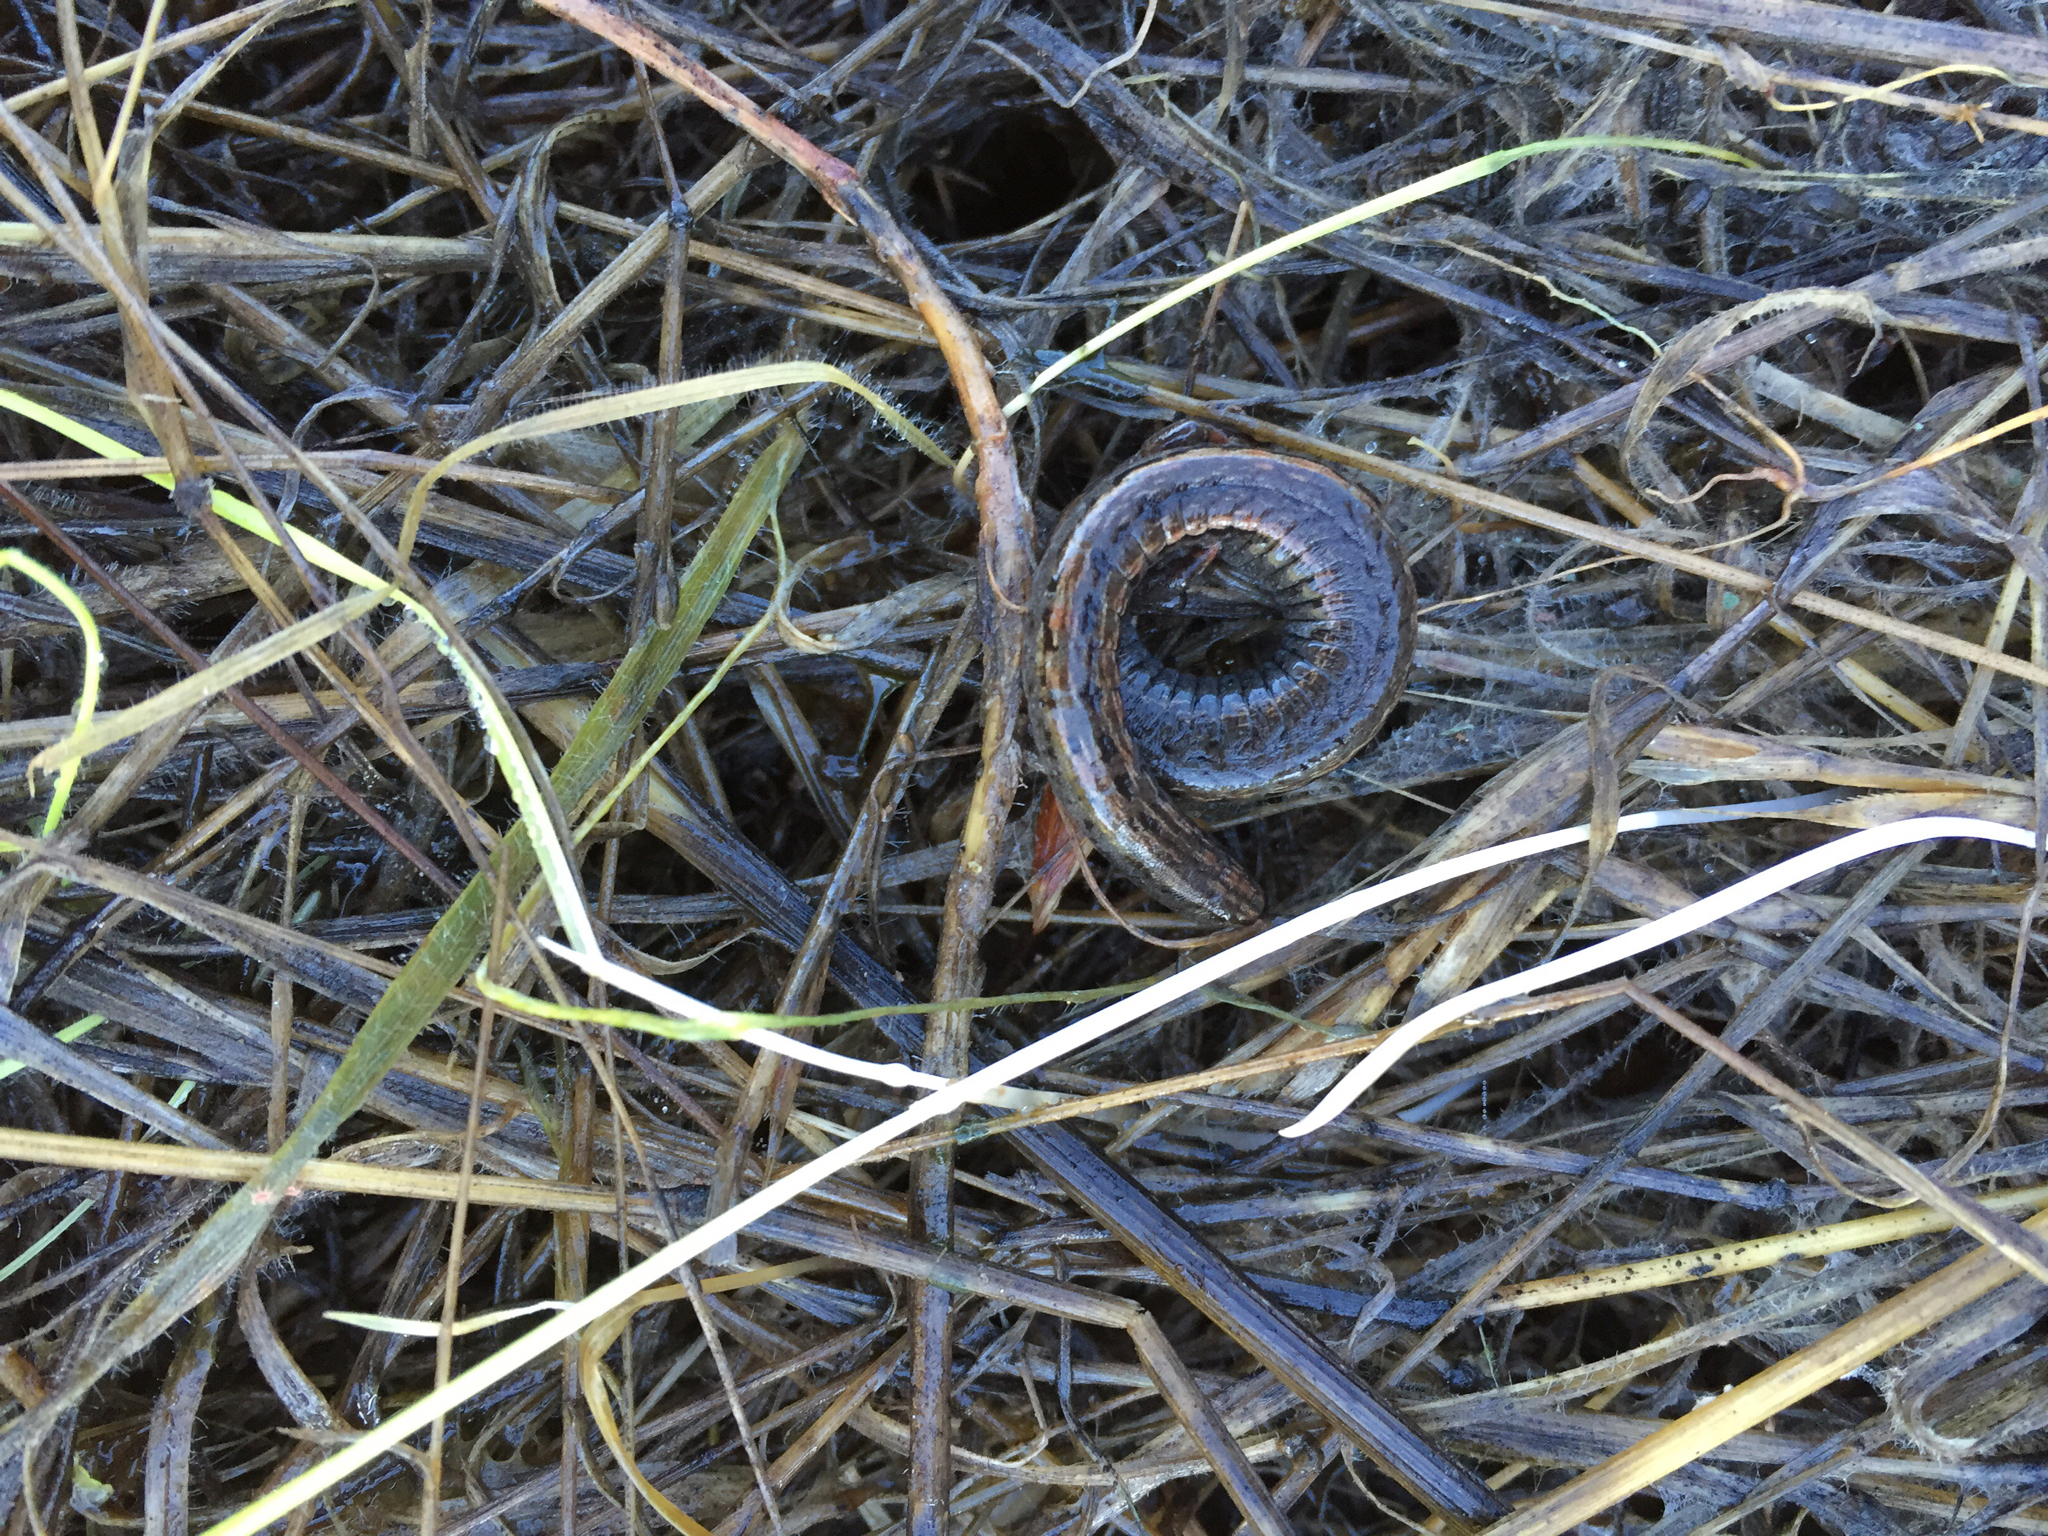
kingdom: Animalia
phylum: Chordata
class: Amphibia
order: Caudata
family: Plethodontidae
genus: Batrachoseps
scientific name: Batrachoseps attenuatus
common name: California slender salamander
